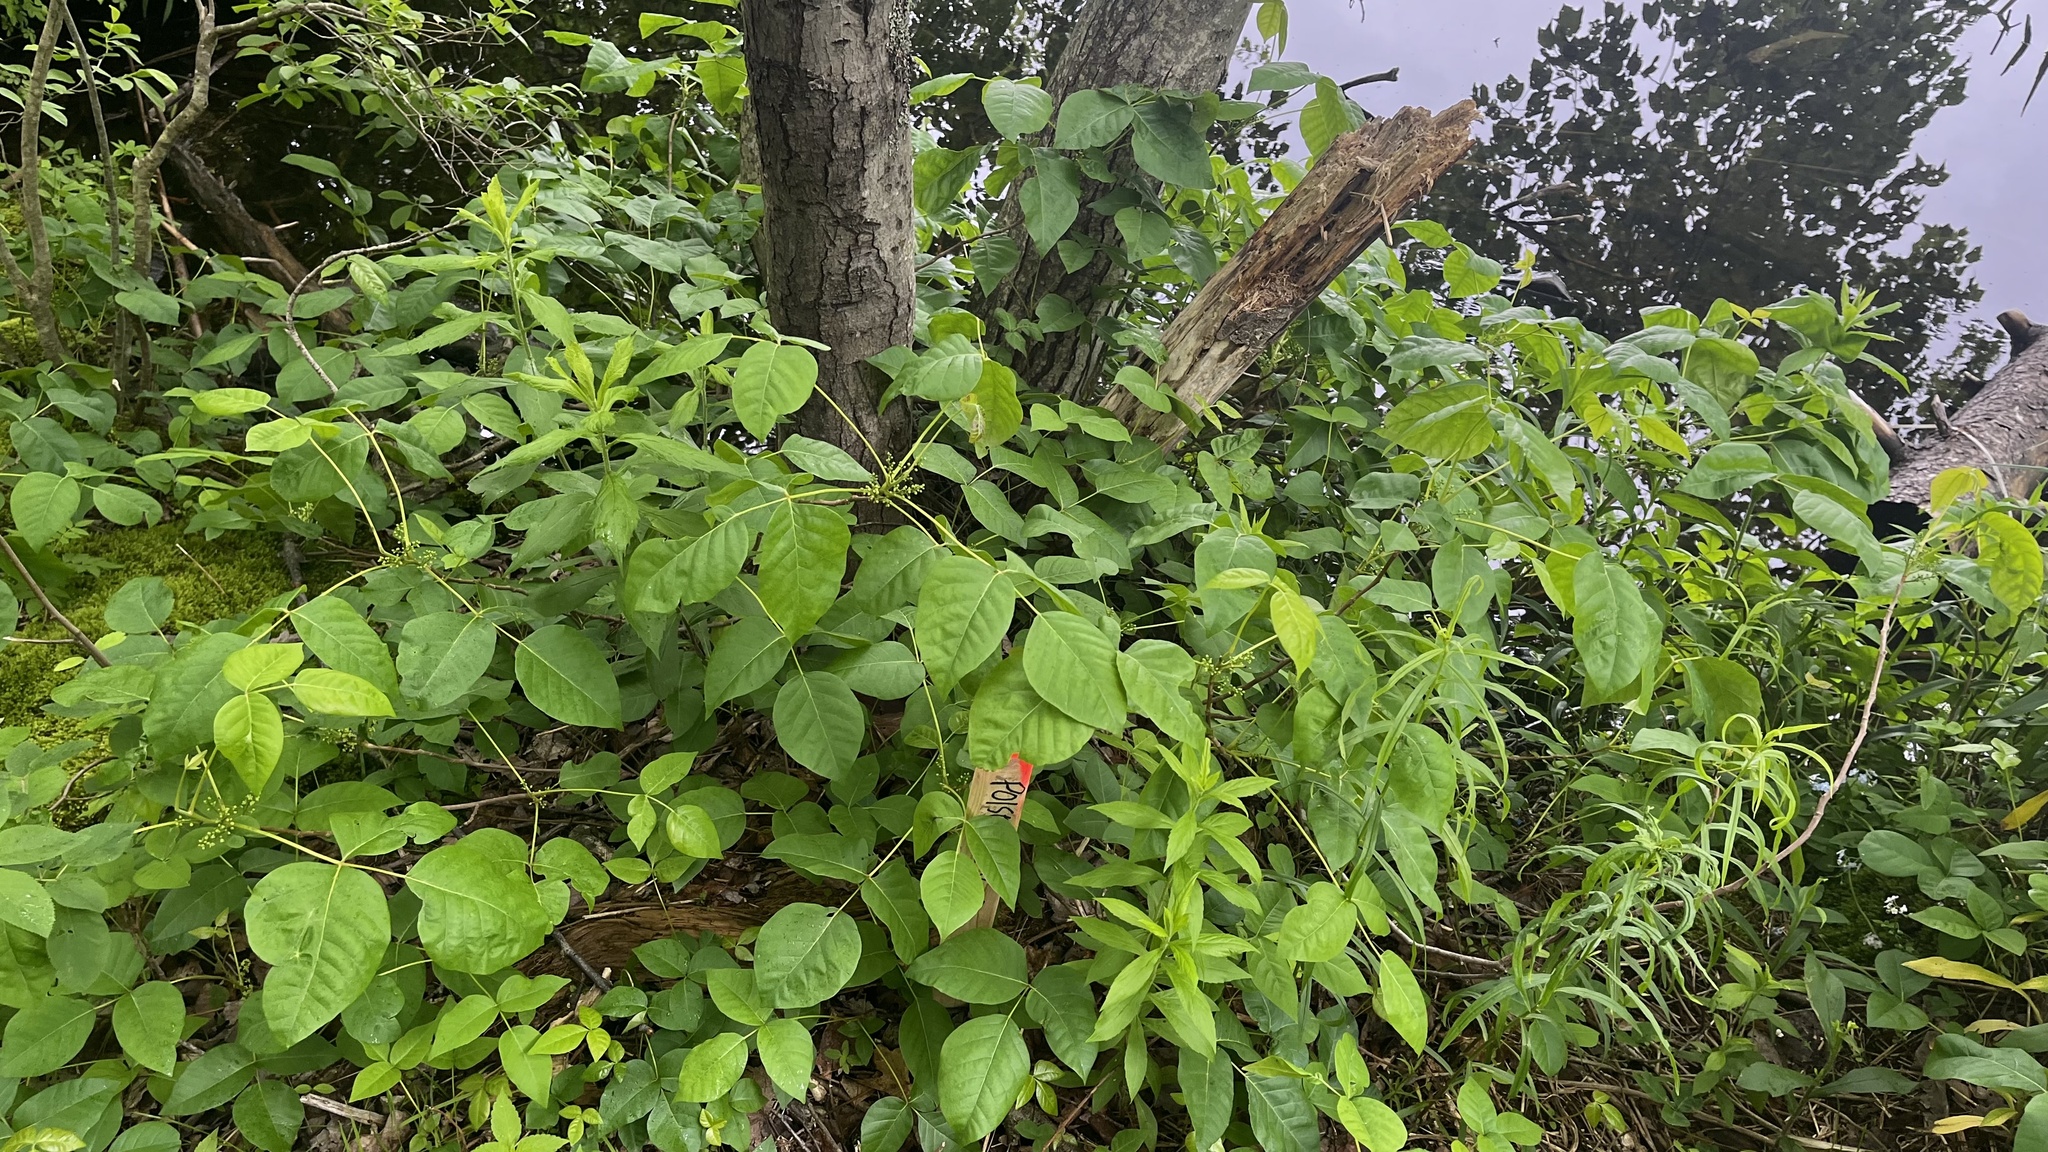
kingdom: Plantae
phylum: Tracheophyta
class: Magnoliopsida
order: Sapindales
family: Anacardiaceae
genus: Toxicodendron
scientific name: Toxicodendron radicans
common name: Poison ivy
